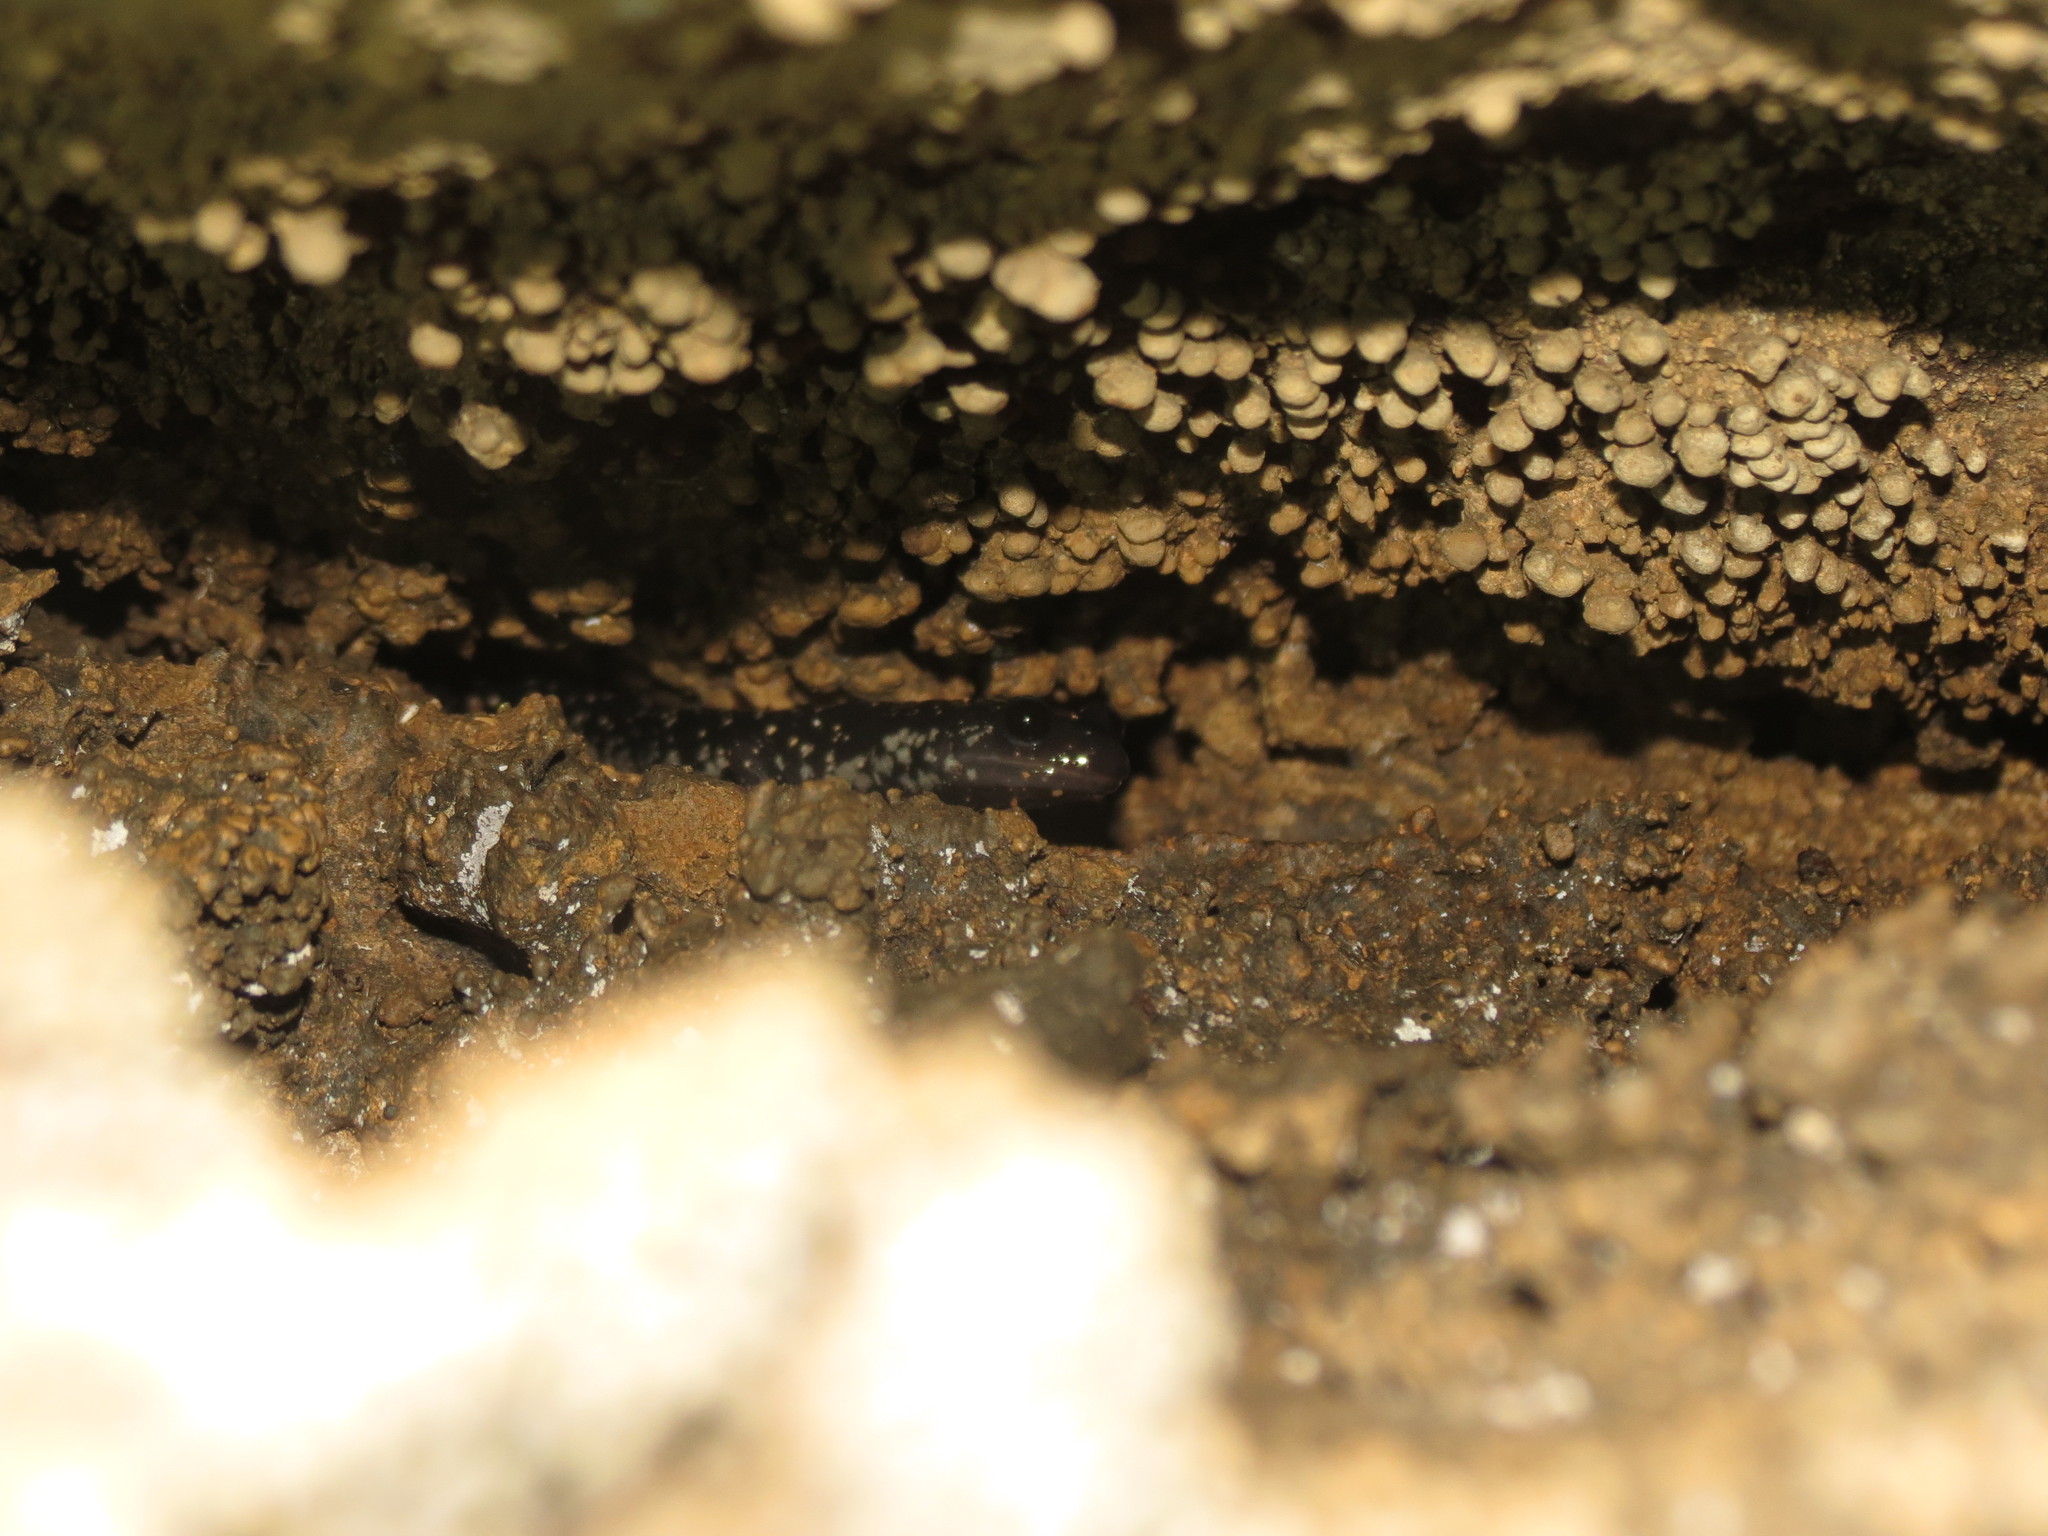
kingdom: Animalia
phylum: Chordata
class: Amphibia
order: Caudata
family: Plethodontidae
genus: Plethodon
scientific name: Plethodon glutinosus
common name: Northern slimy salamander
